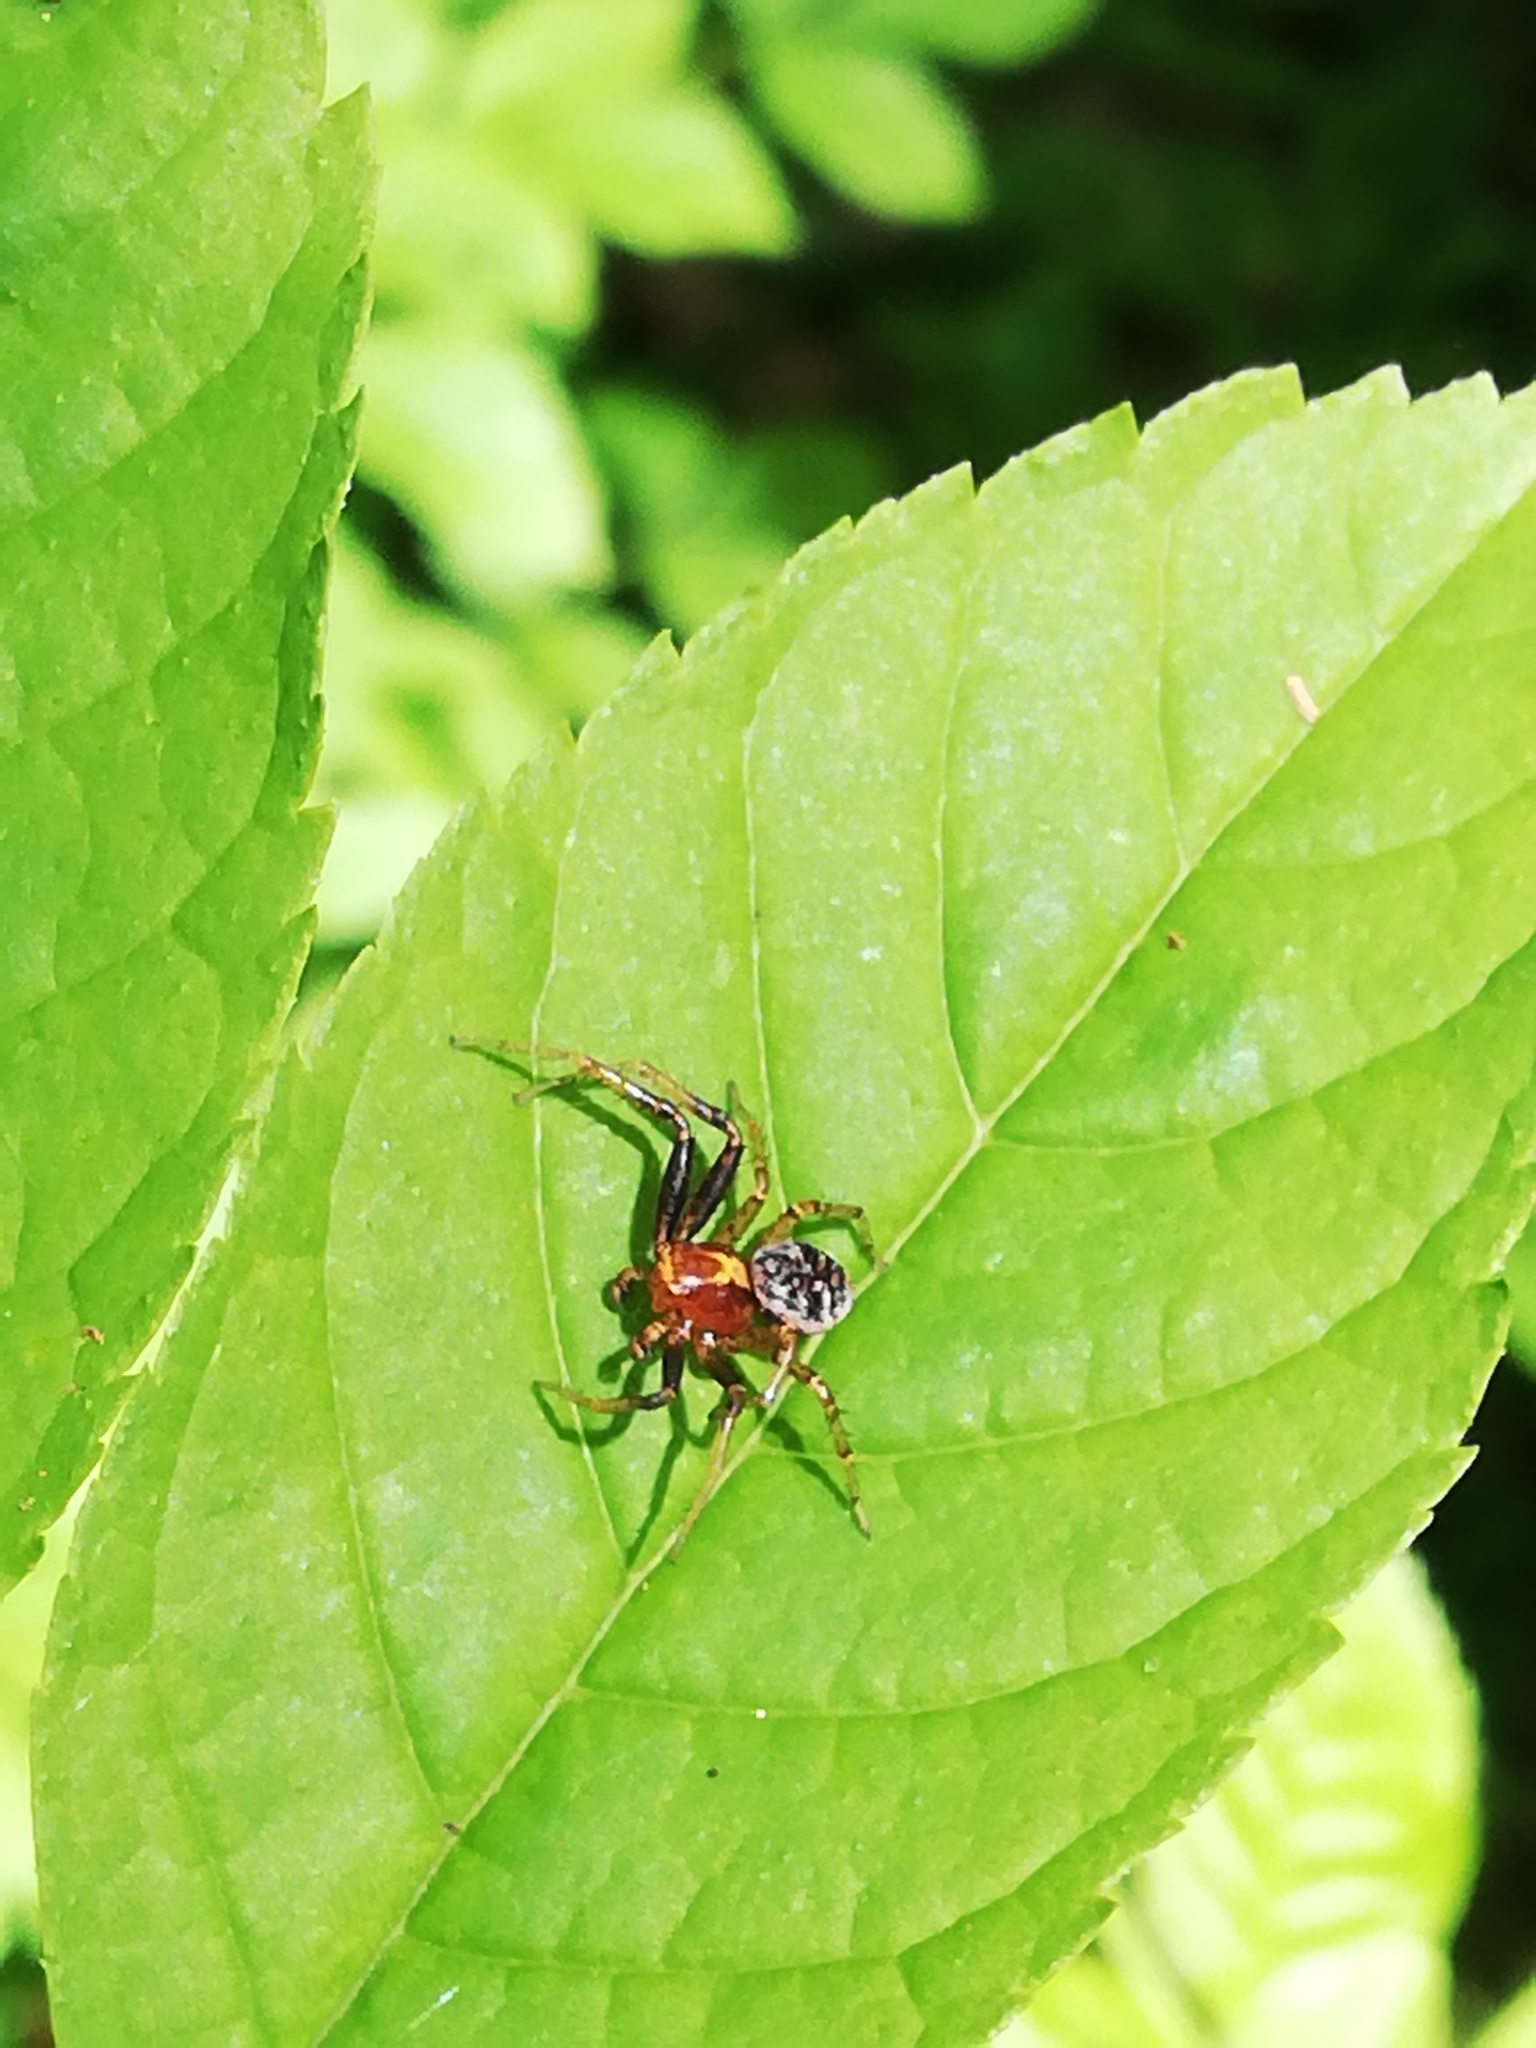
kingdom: Animalia
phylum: Arthropoda
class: Arachnida
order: Araneae
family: Thomisidae
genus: Xysticus
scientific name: Xysticus lanio
